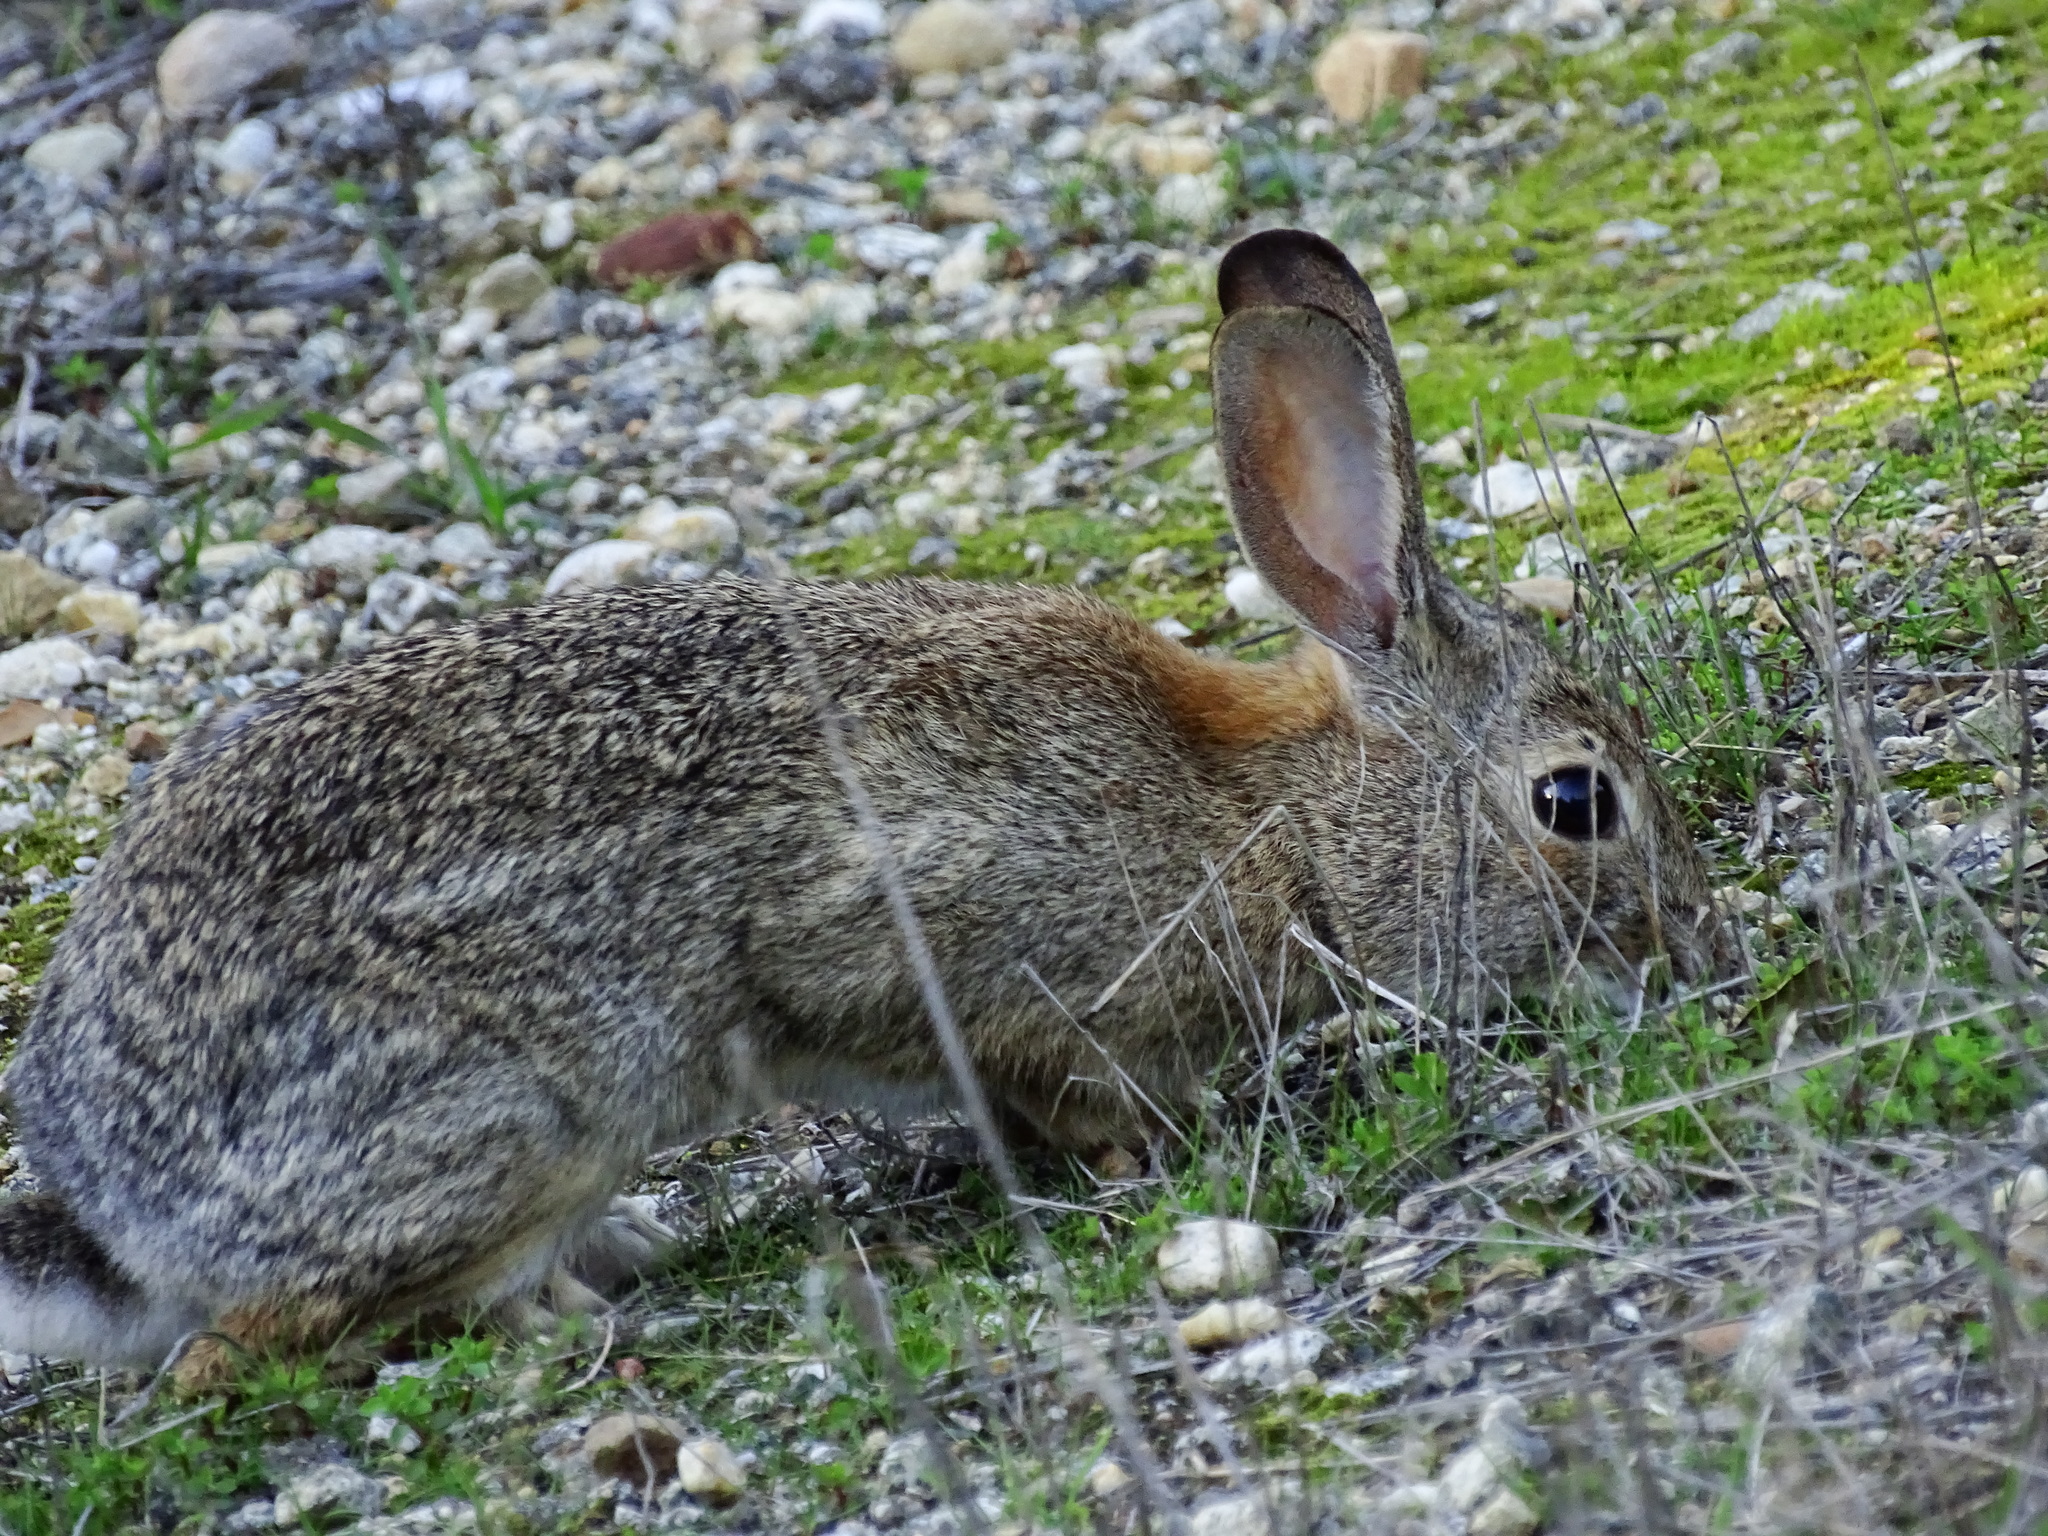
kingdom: Animalia
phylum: Chordata
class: Mammalia
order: Lagomorpha
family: Leporidae
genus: Sylvilagus
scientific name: Sylvilagus audubonii
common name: Desert cottontail
